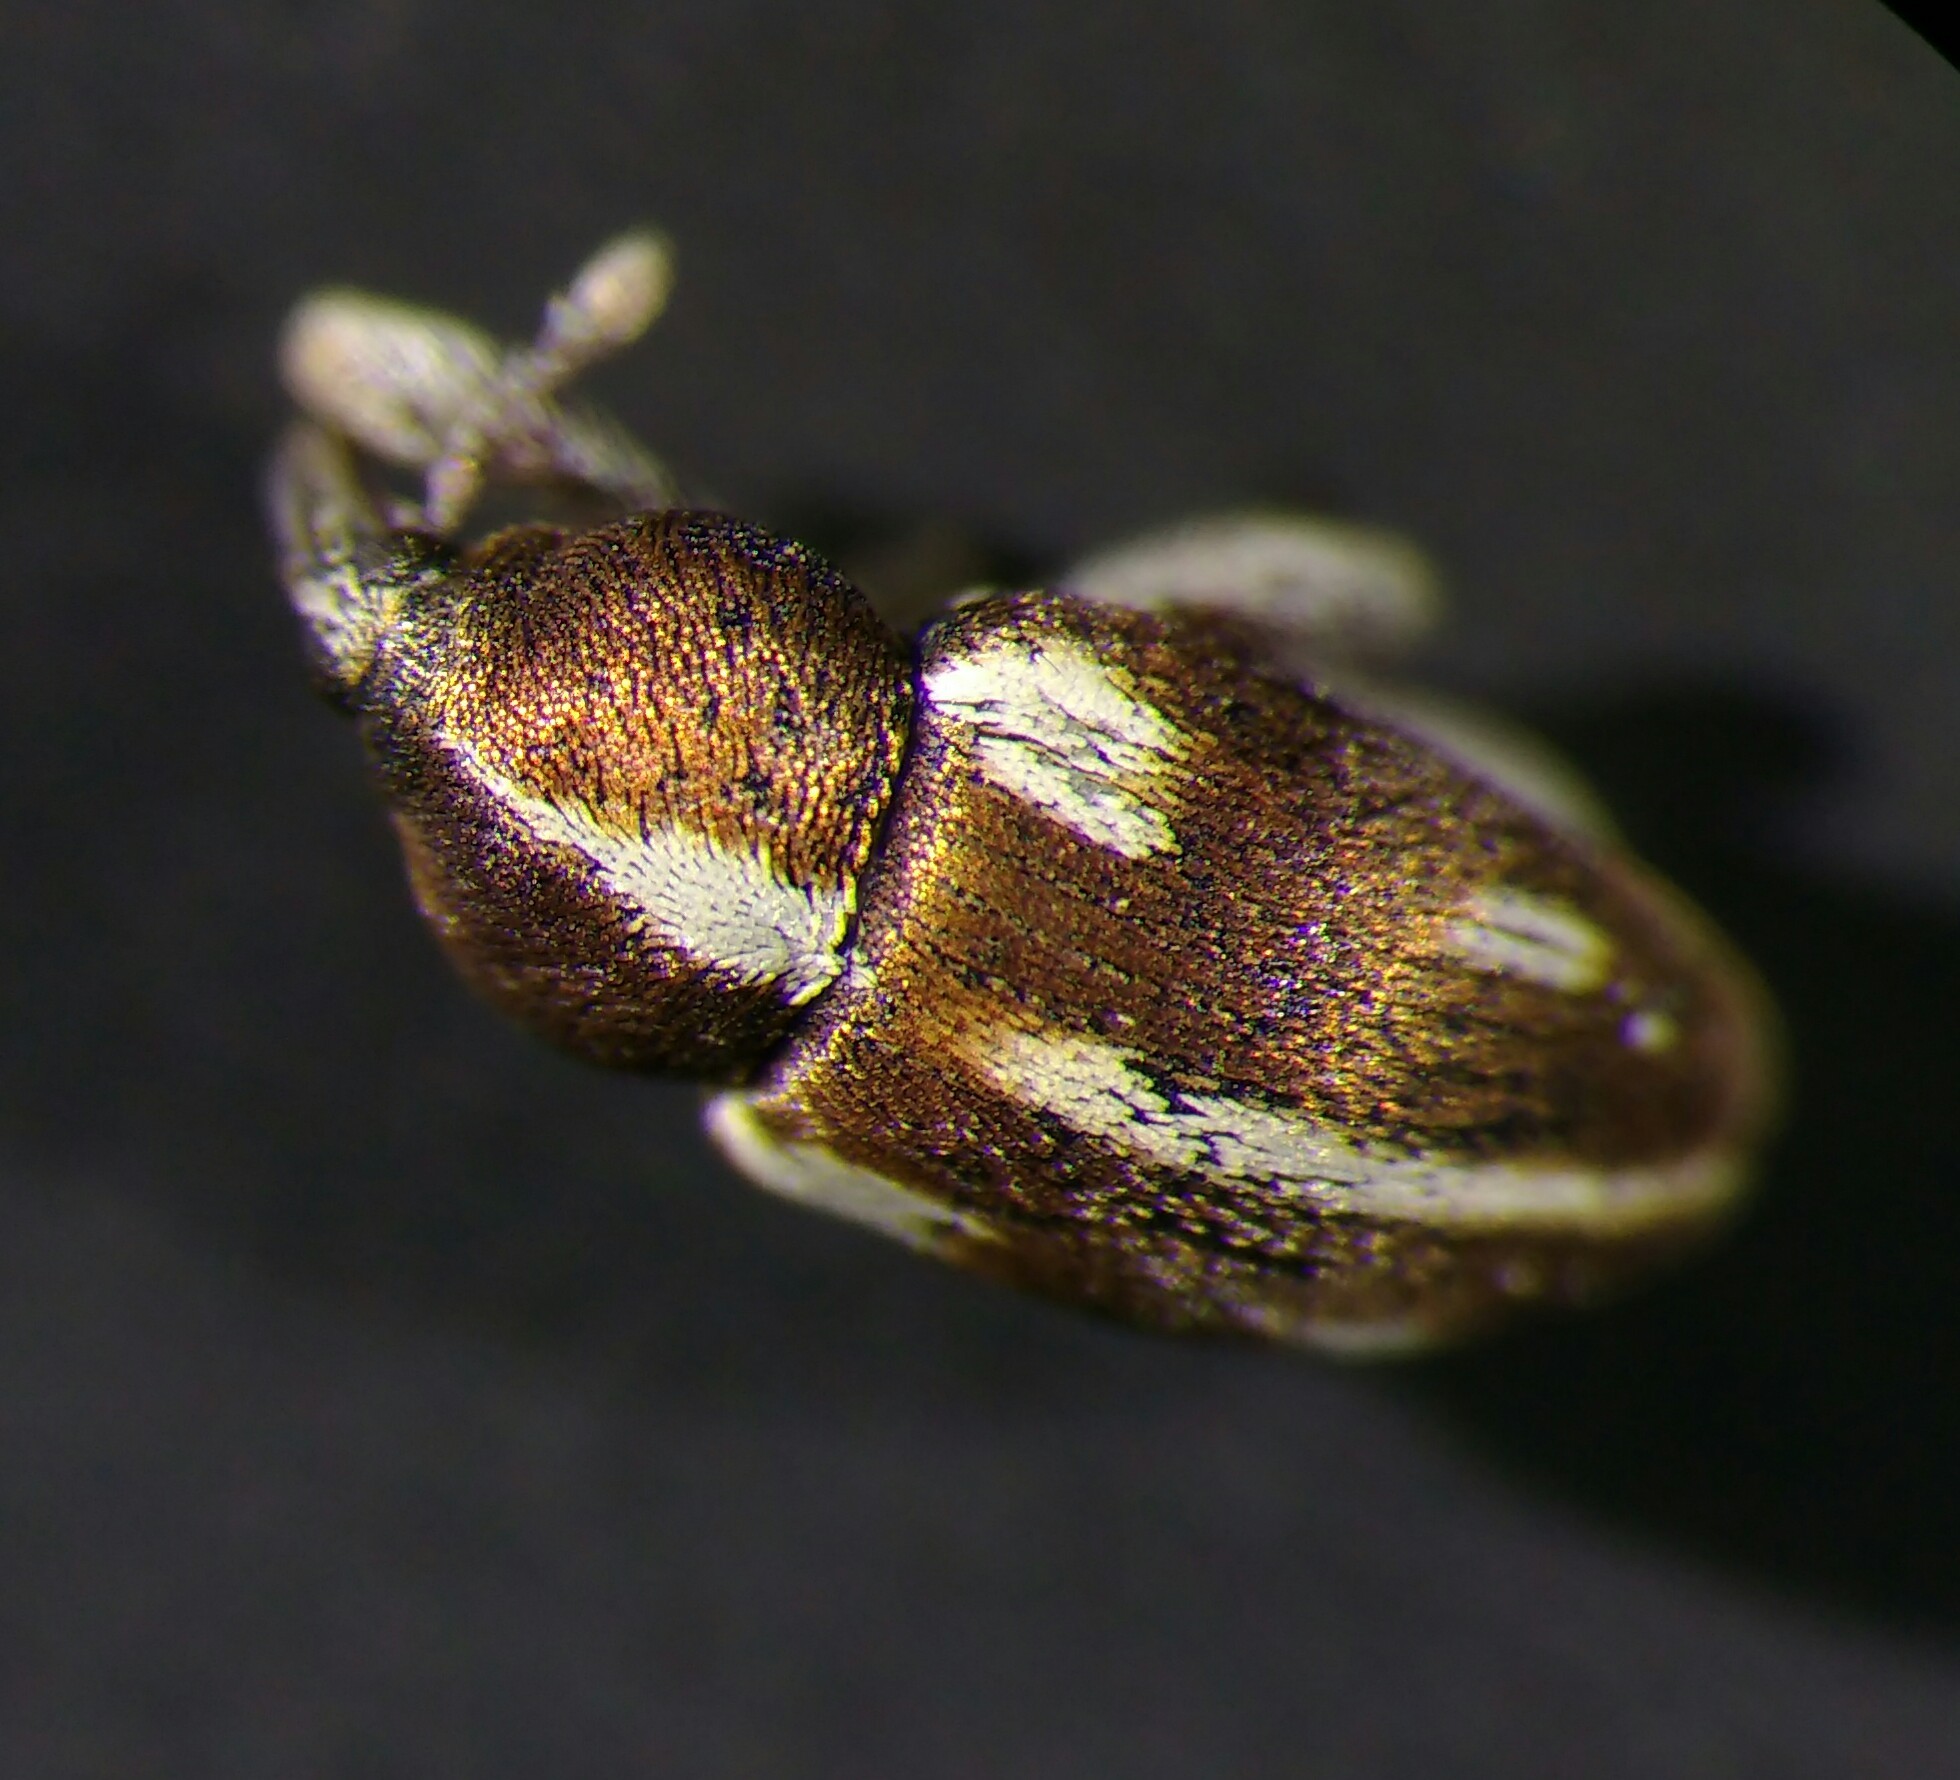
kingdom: Animalia
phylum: Arthropoda
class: Insecta
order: Coleoptera
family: Curculionidae
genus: Tychius
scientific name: Tychius quinquepunctatus
